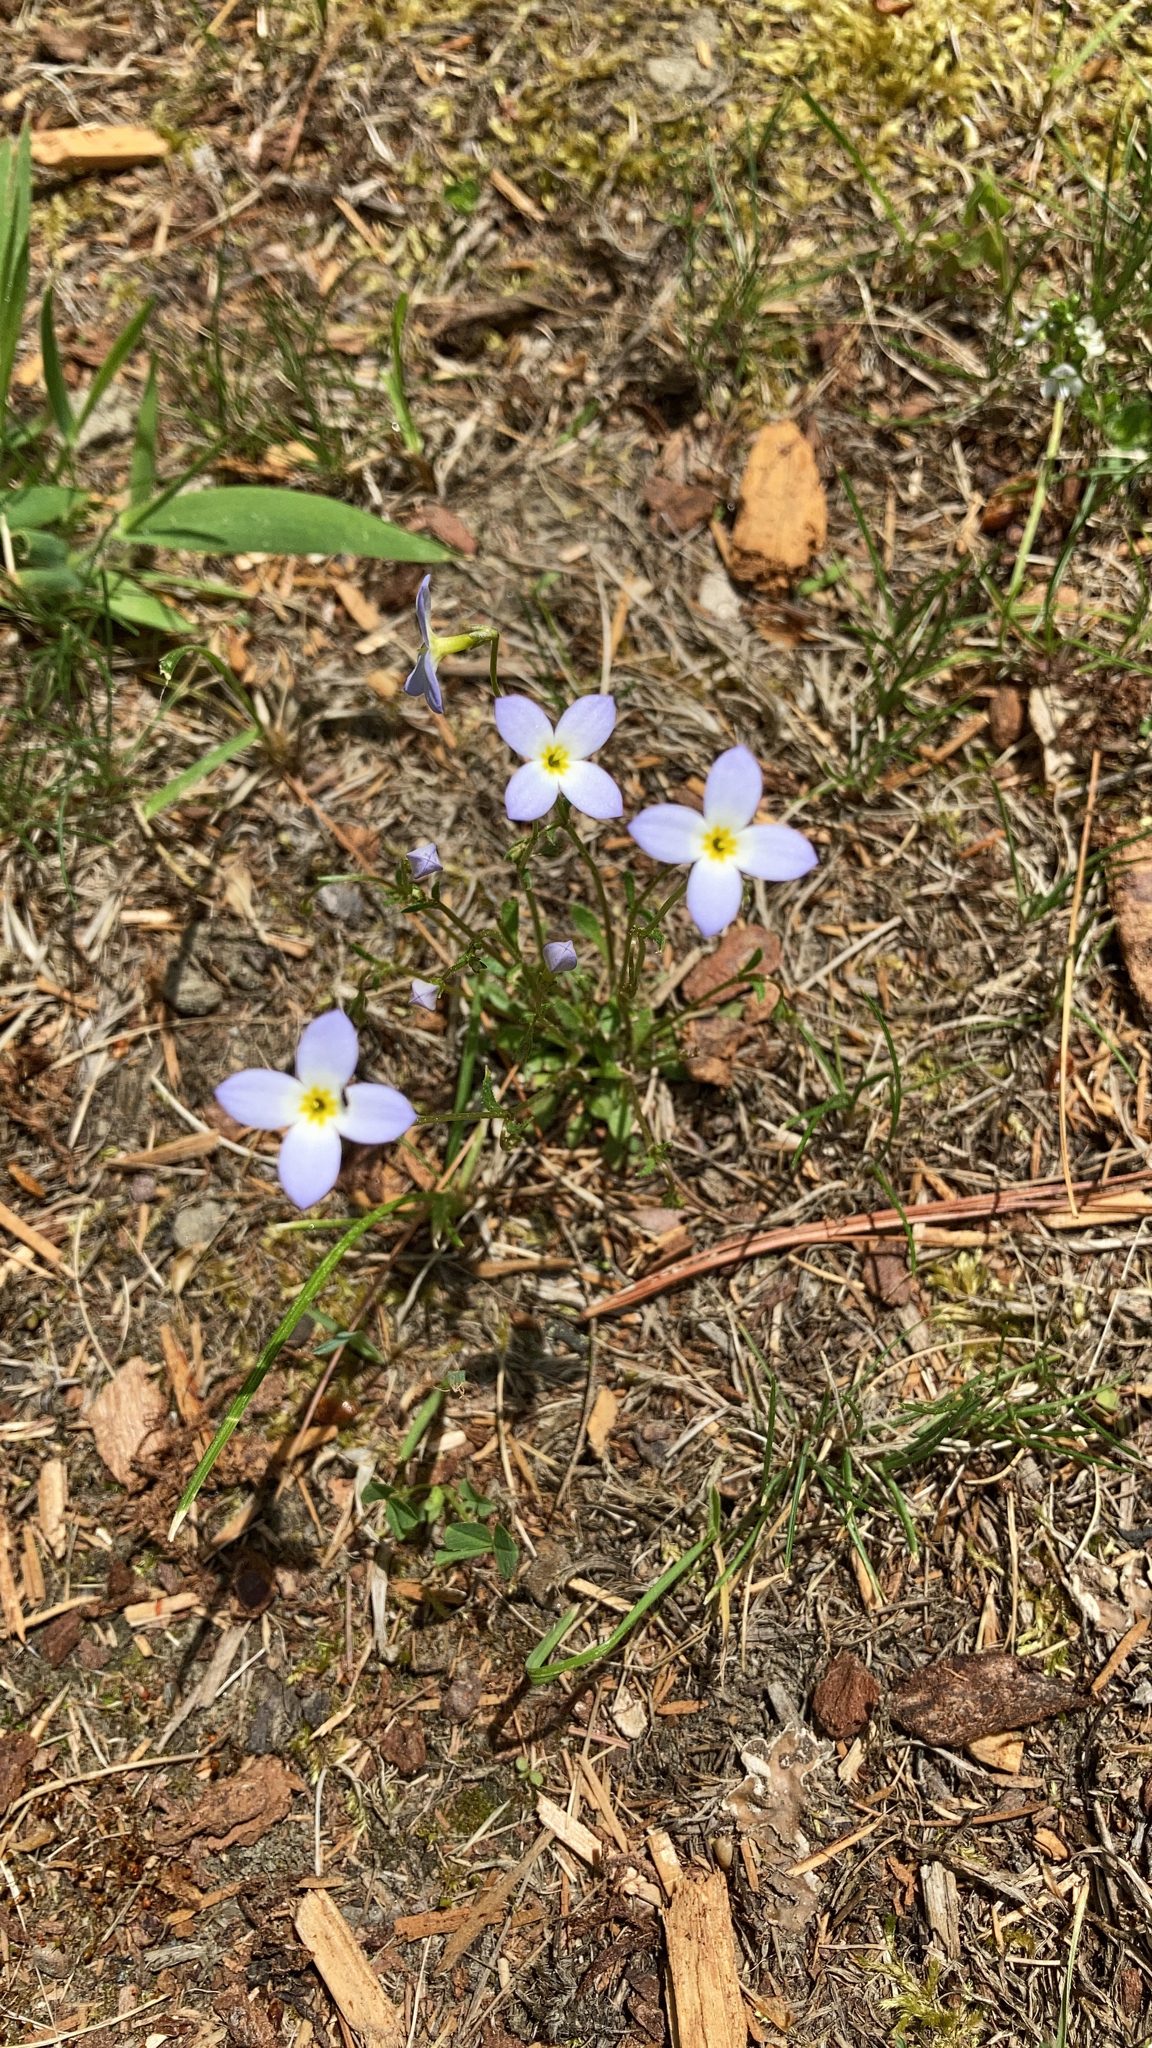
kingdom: Plantae
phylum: Tracheophyta
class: Magnoliopsida
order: Gentianales
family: Rubiaceae
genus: Houstonia
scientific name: Houstonia caerulea
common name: Bluets
